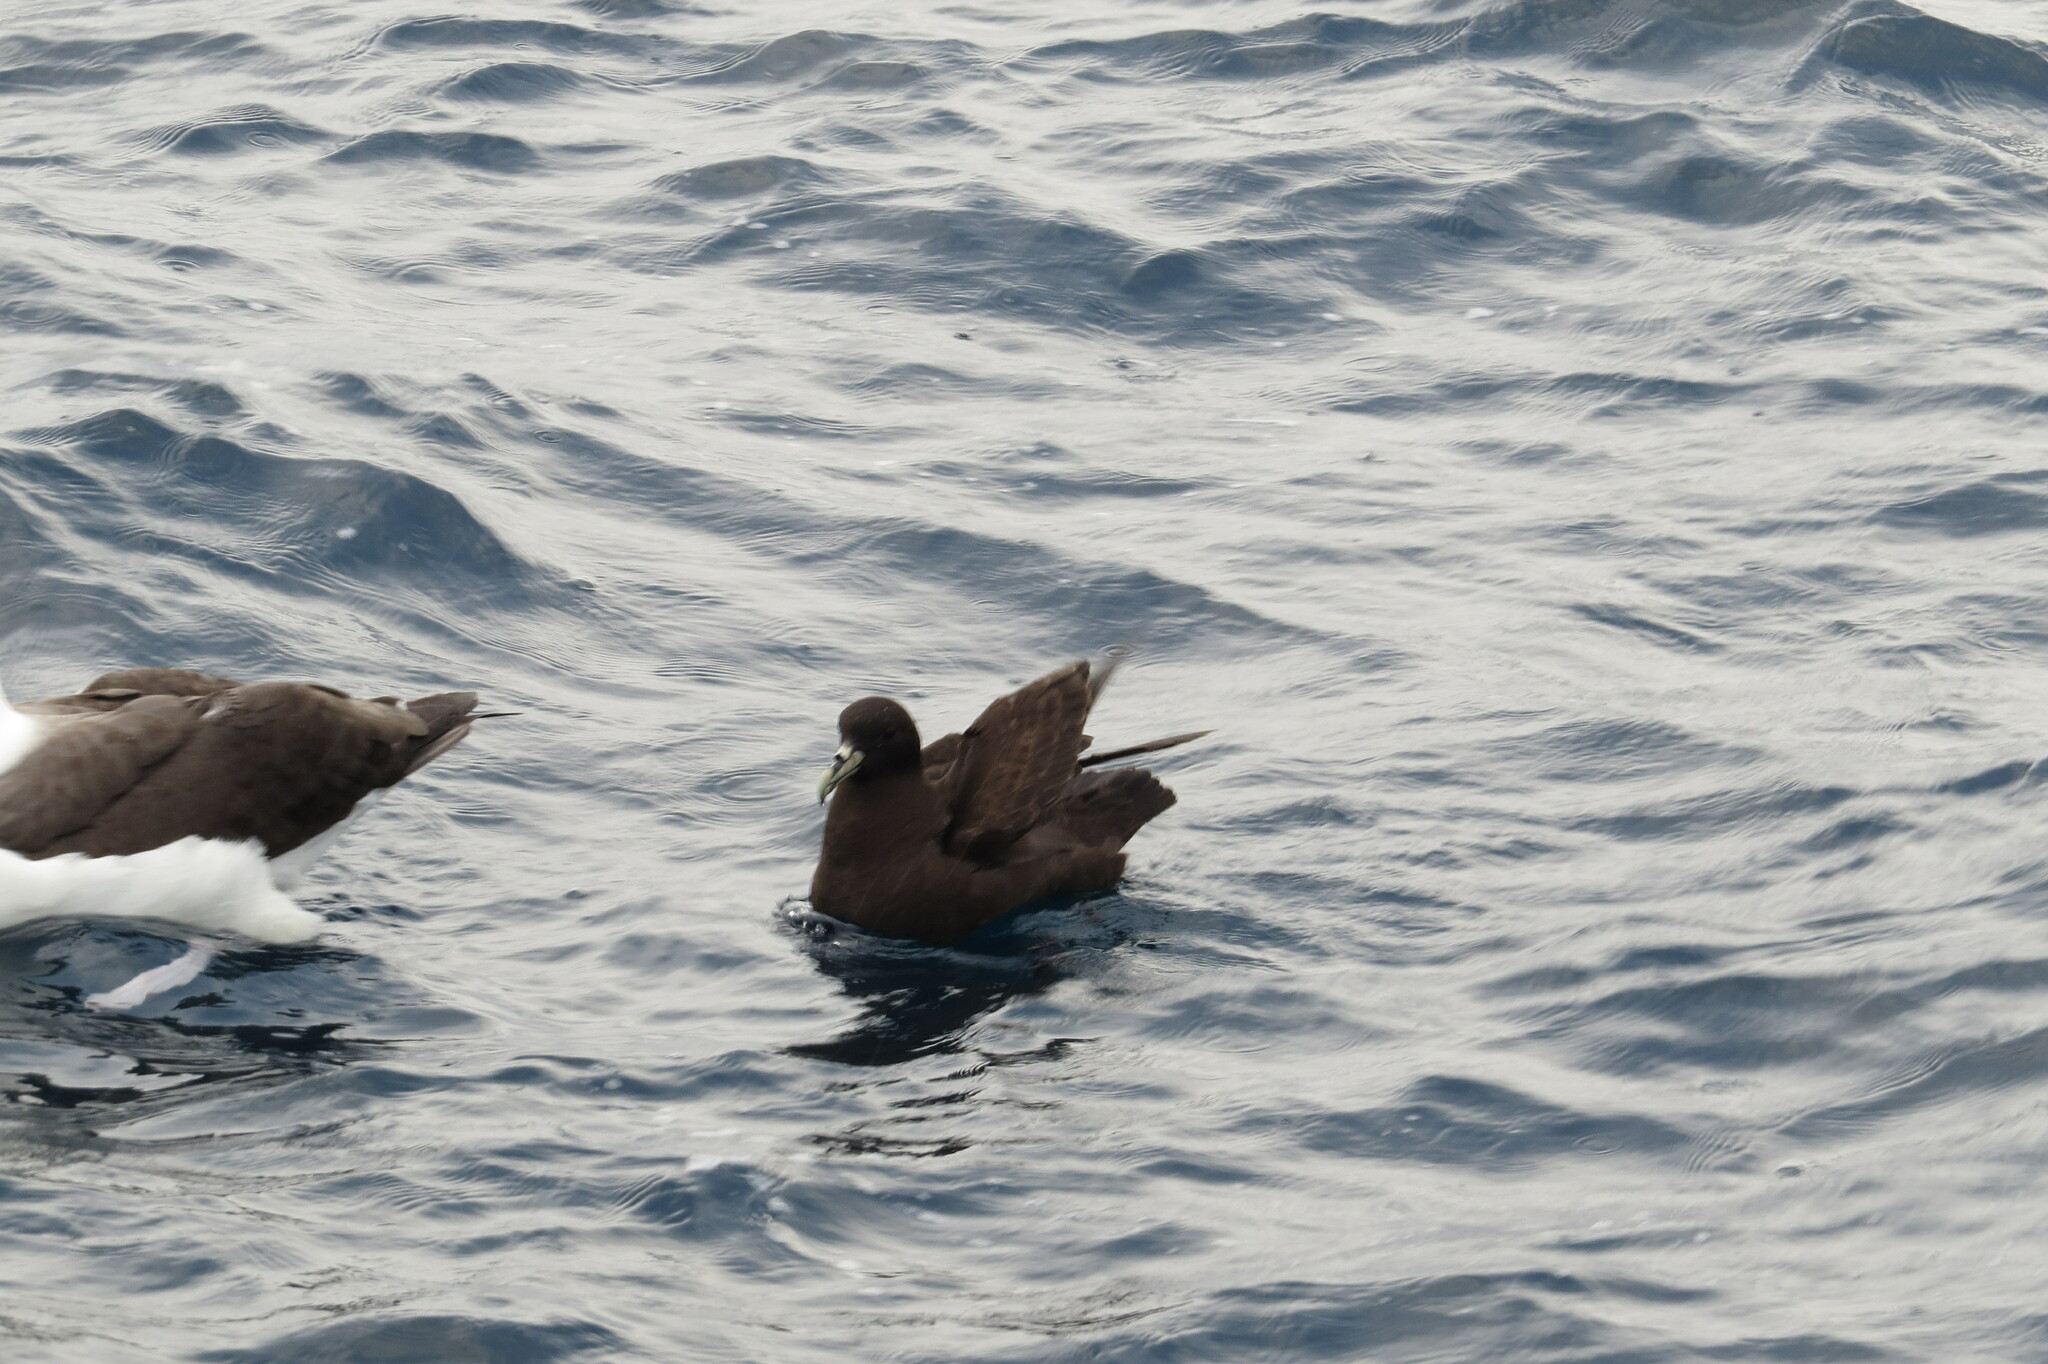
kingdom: Animalia
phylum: Chordata
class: Aves
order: Procellariiformes
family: Procellariidae
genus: Procellaria
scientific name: Procellaria aequinoctialis
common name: White-chinned petrel
